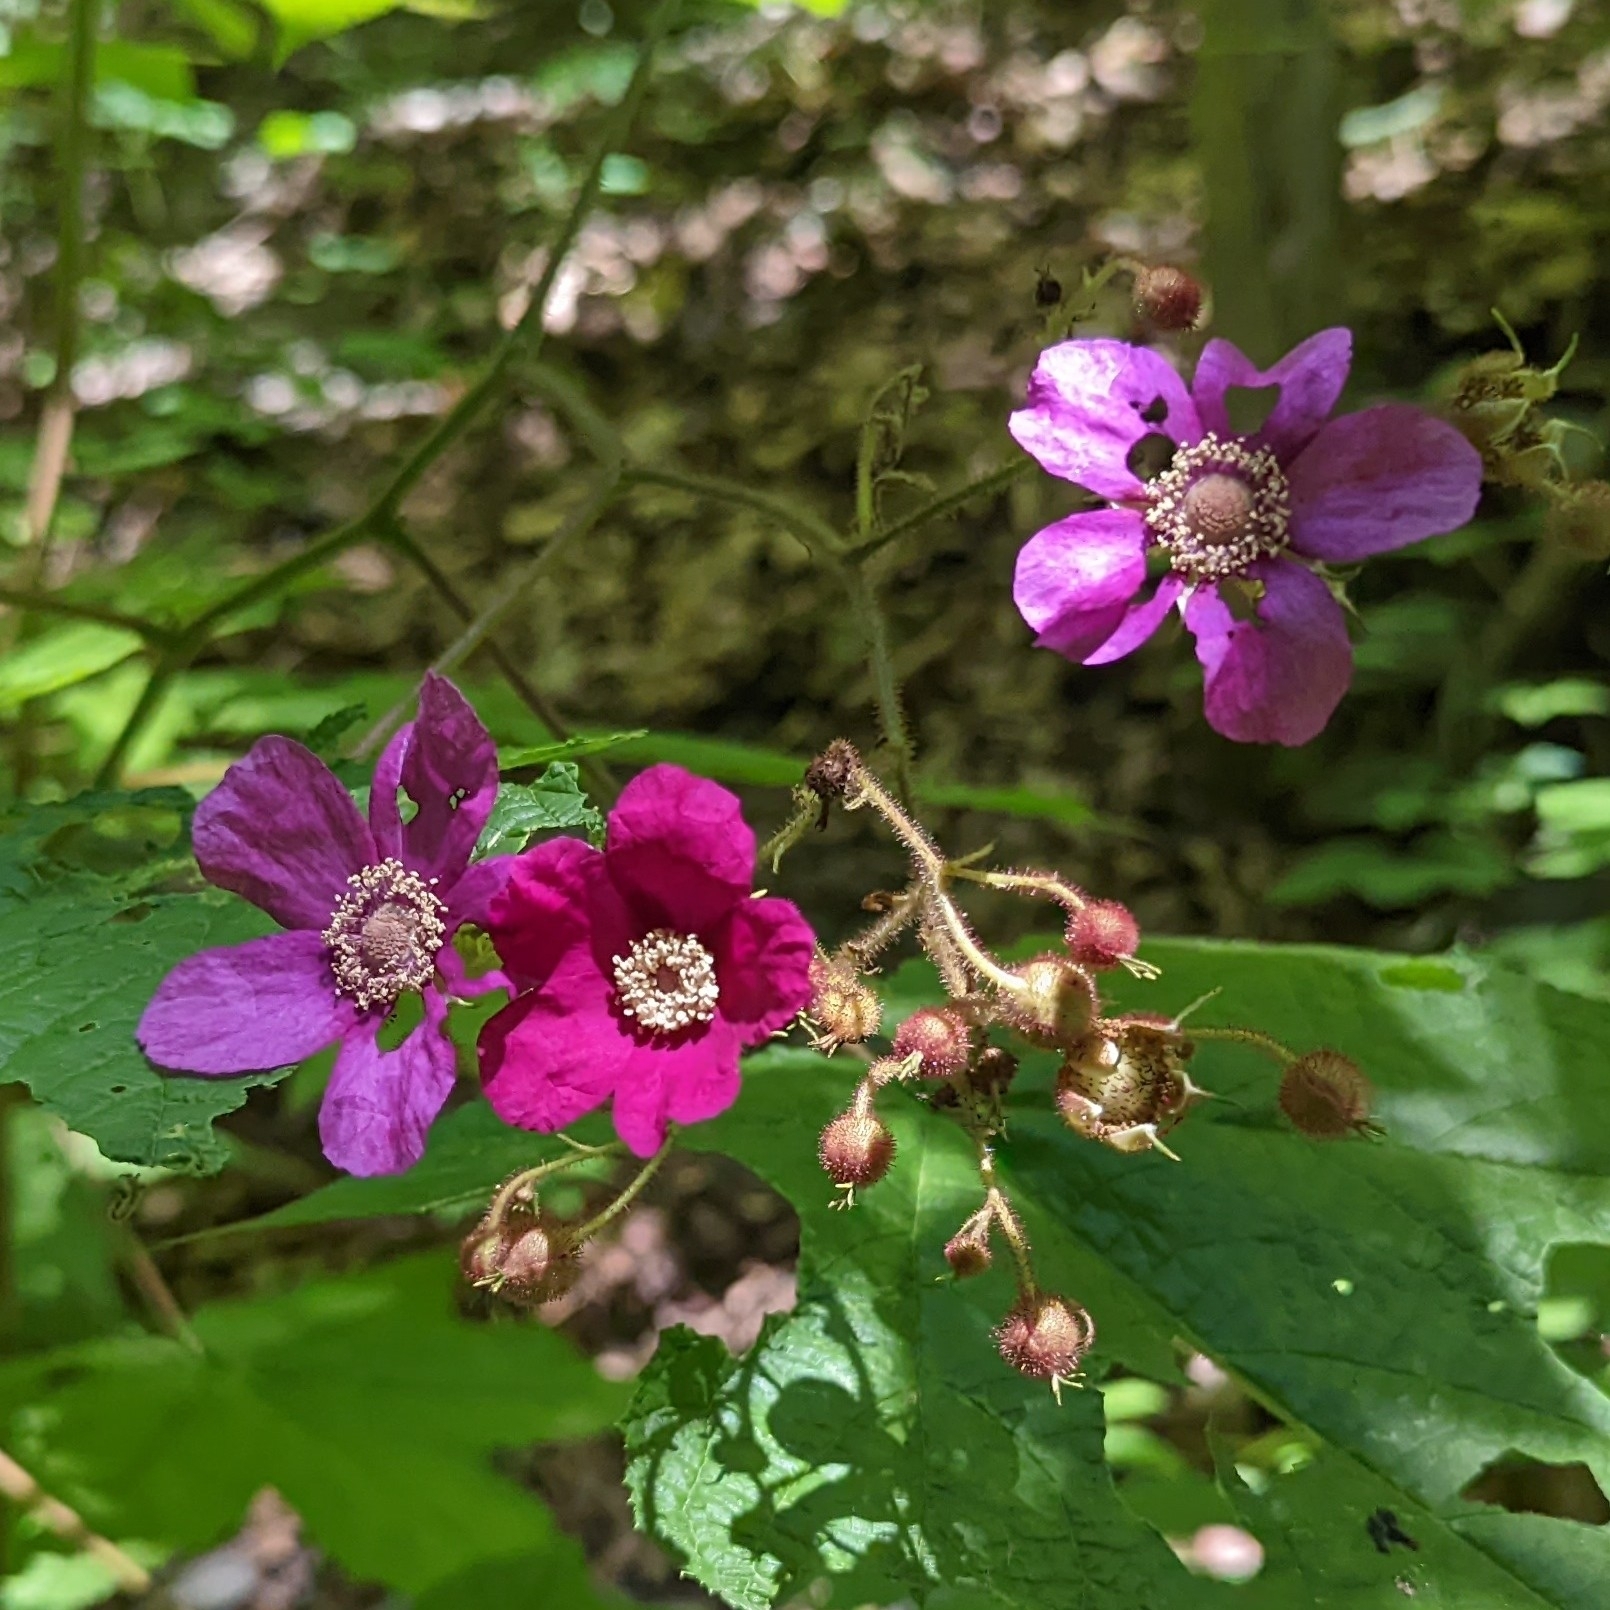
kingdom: Plantae
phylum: Tracheophyta
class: Magnoliopsida
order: Rosales
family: Rosaceae
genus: Rubus
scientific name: Rubus odoratus
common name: Purple-flowered raspberry
